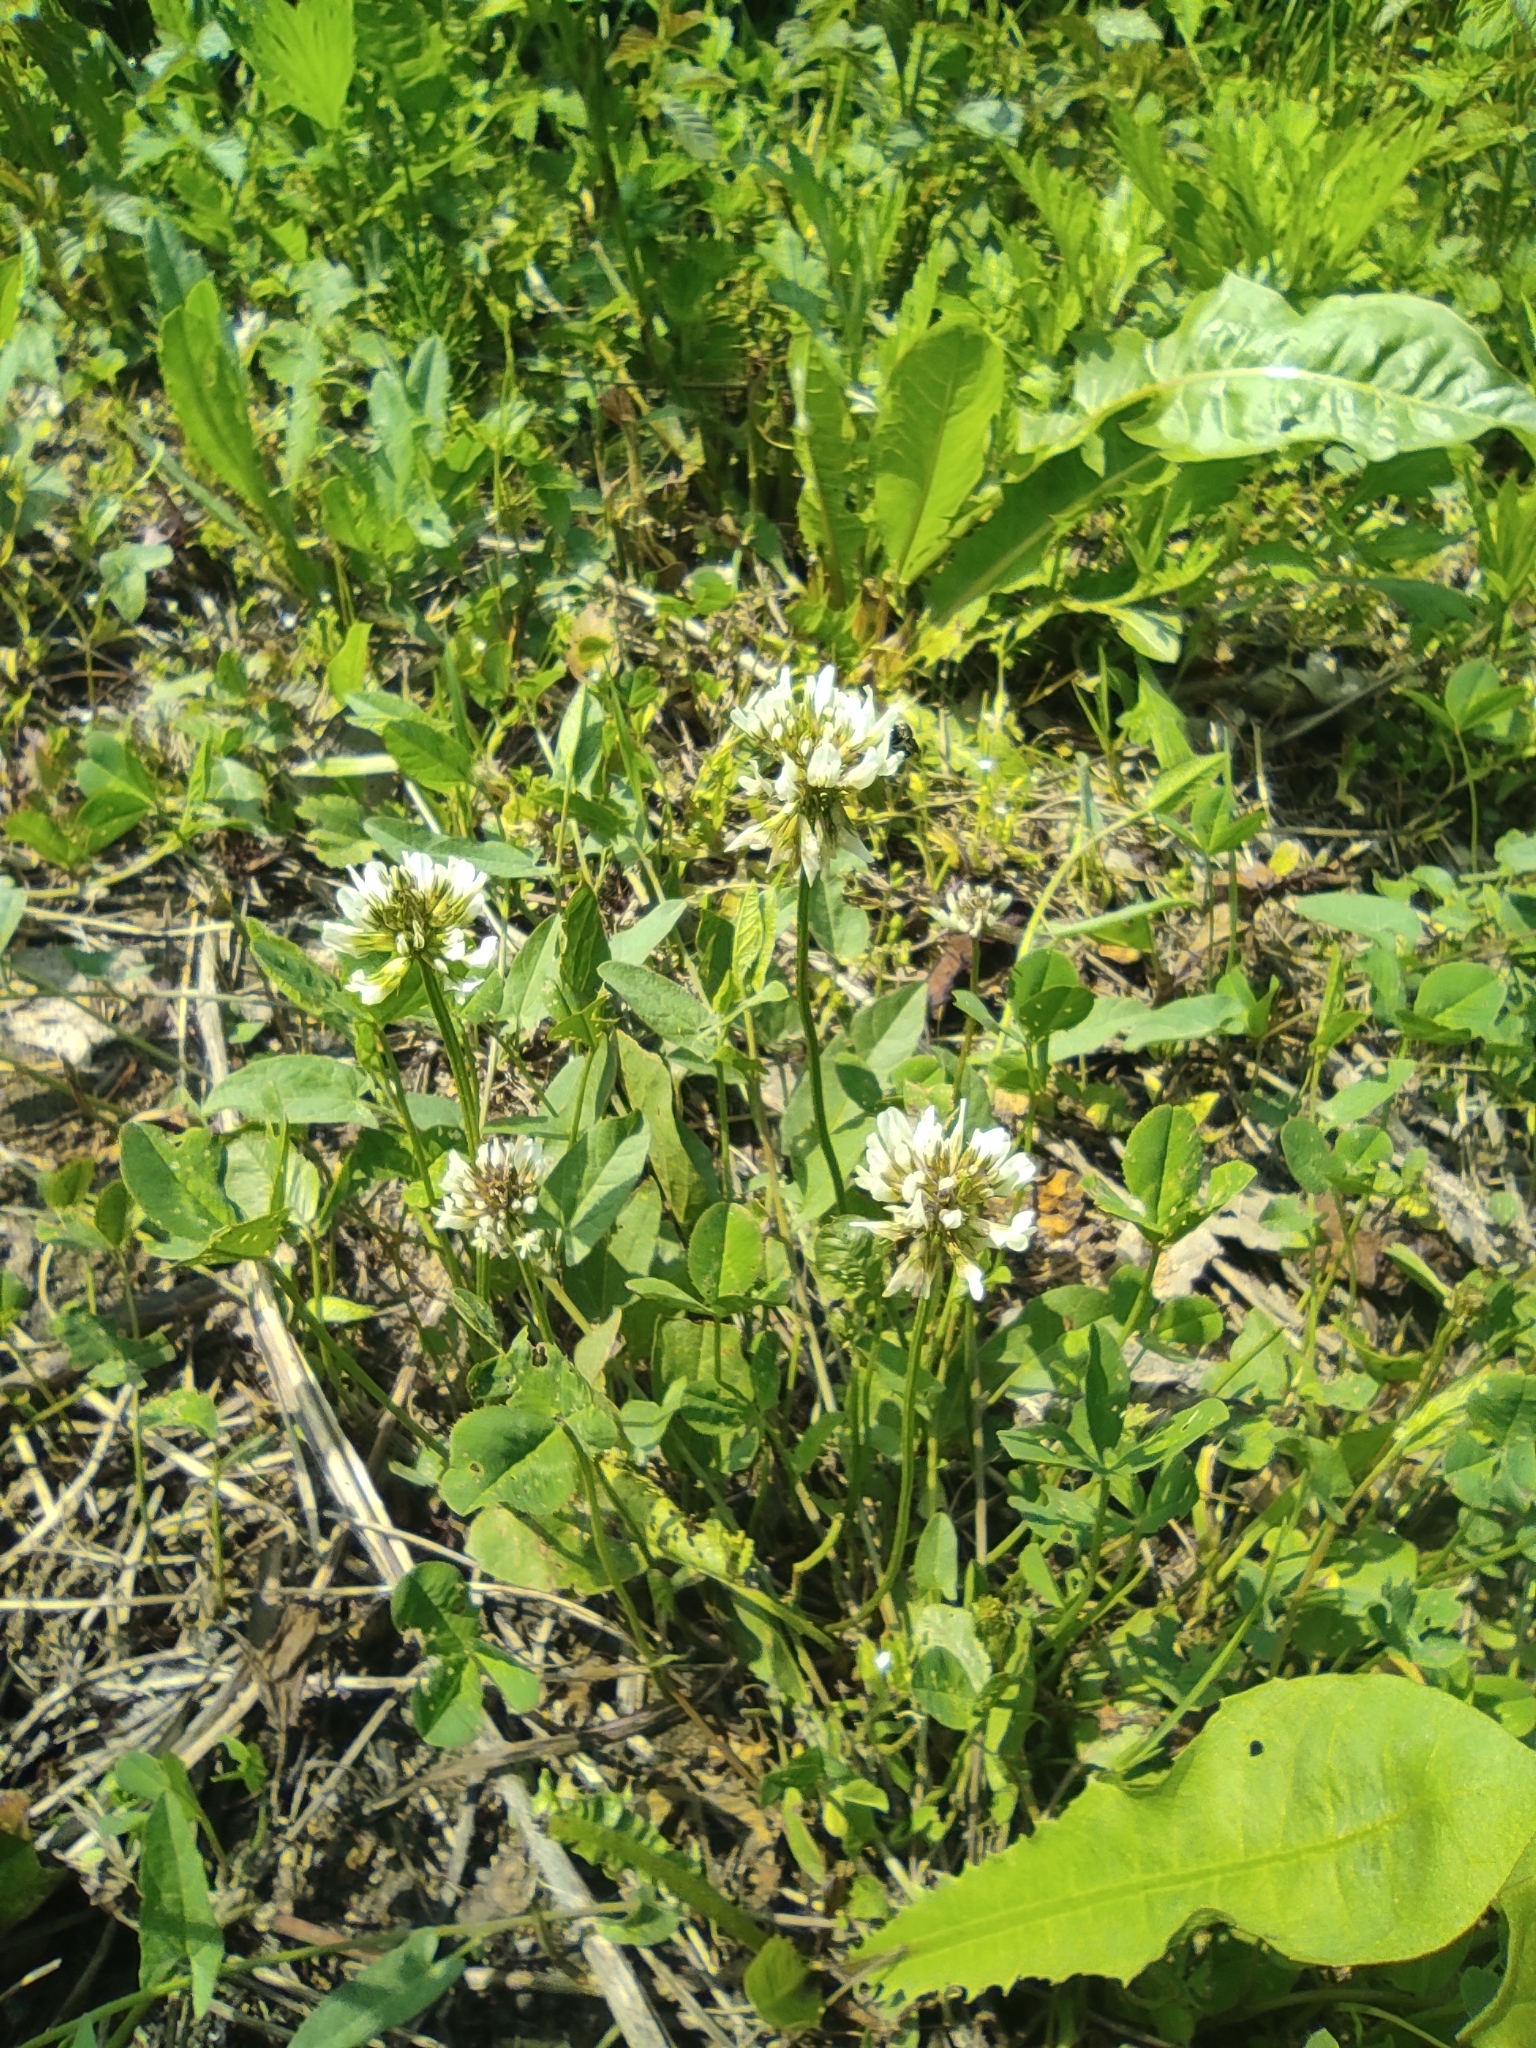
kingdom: Plantae
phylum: Tracheophyta
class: Magnoliopsida
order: Fabales
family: Fabaceae
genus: Trifolium
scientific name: Trifolium repens
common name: White clover
